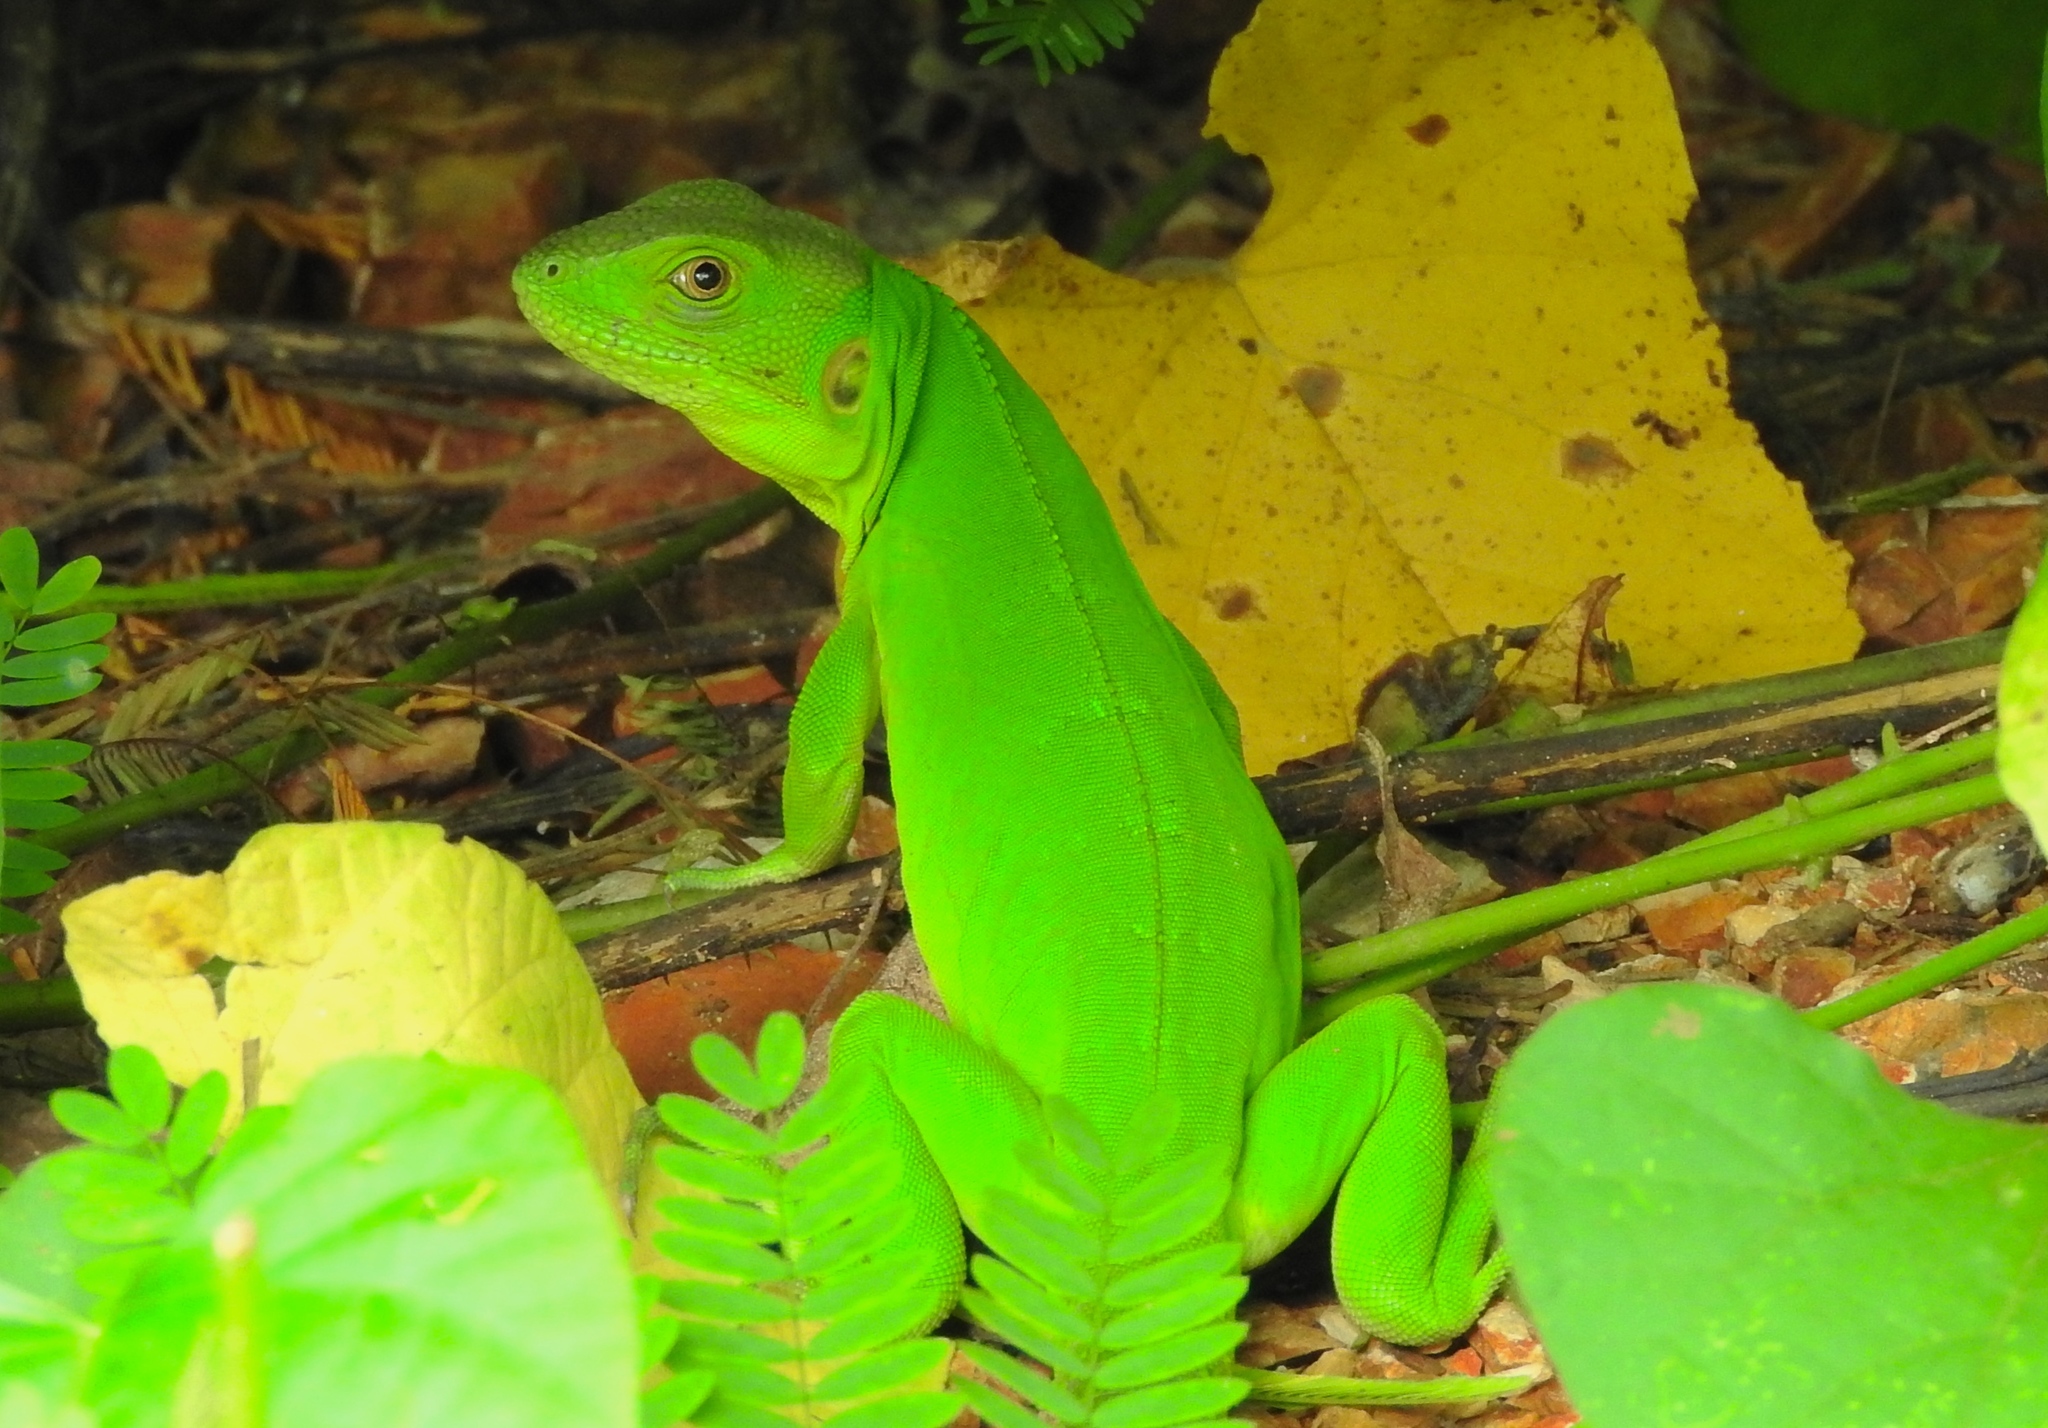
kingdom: Animalia
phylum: Chordata
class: Squamata
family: Iguanidae
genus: Ctenosaura
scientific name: Ctenosaura pectinata
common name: Guerreran spiny-tailed iguana
